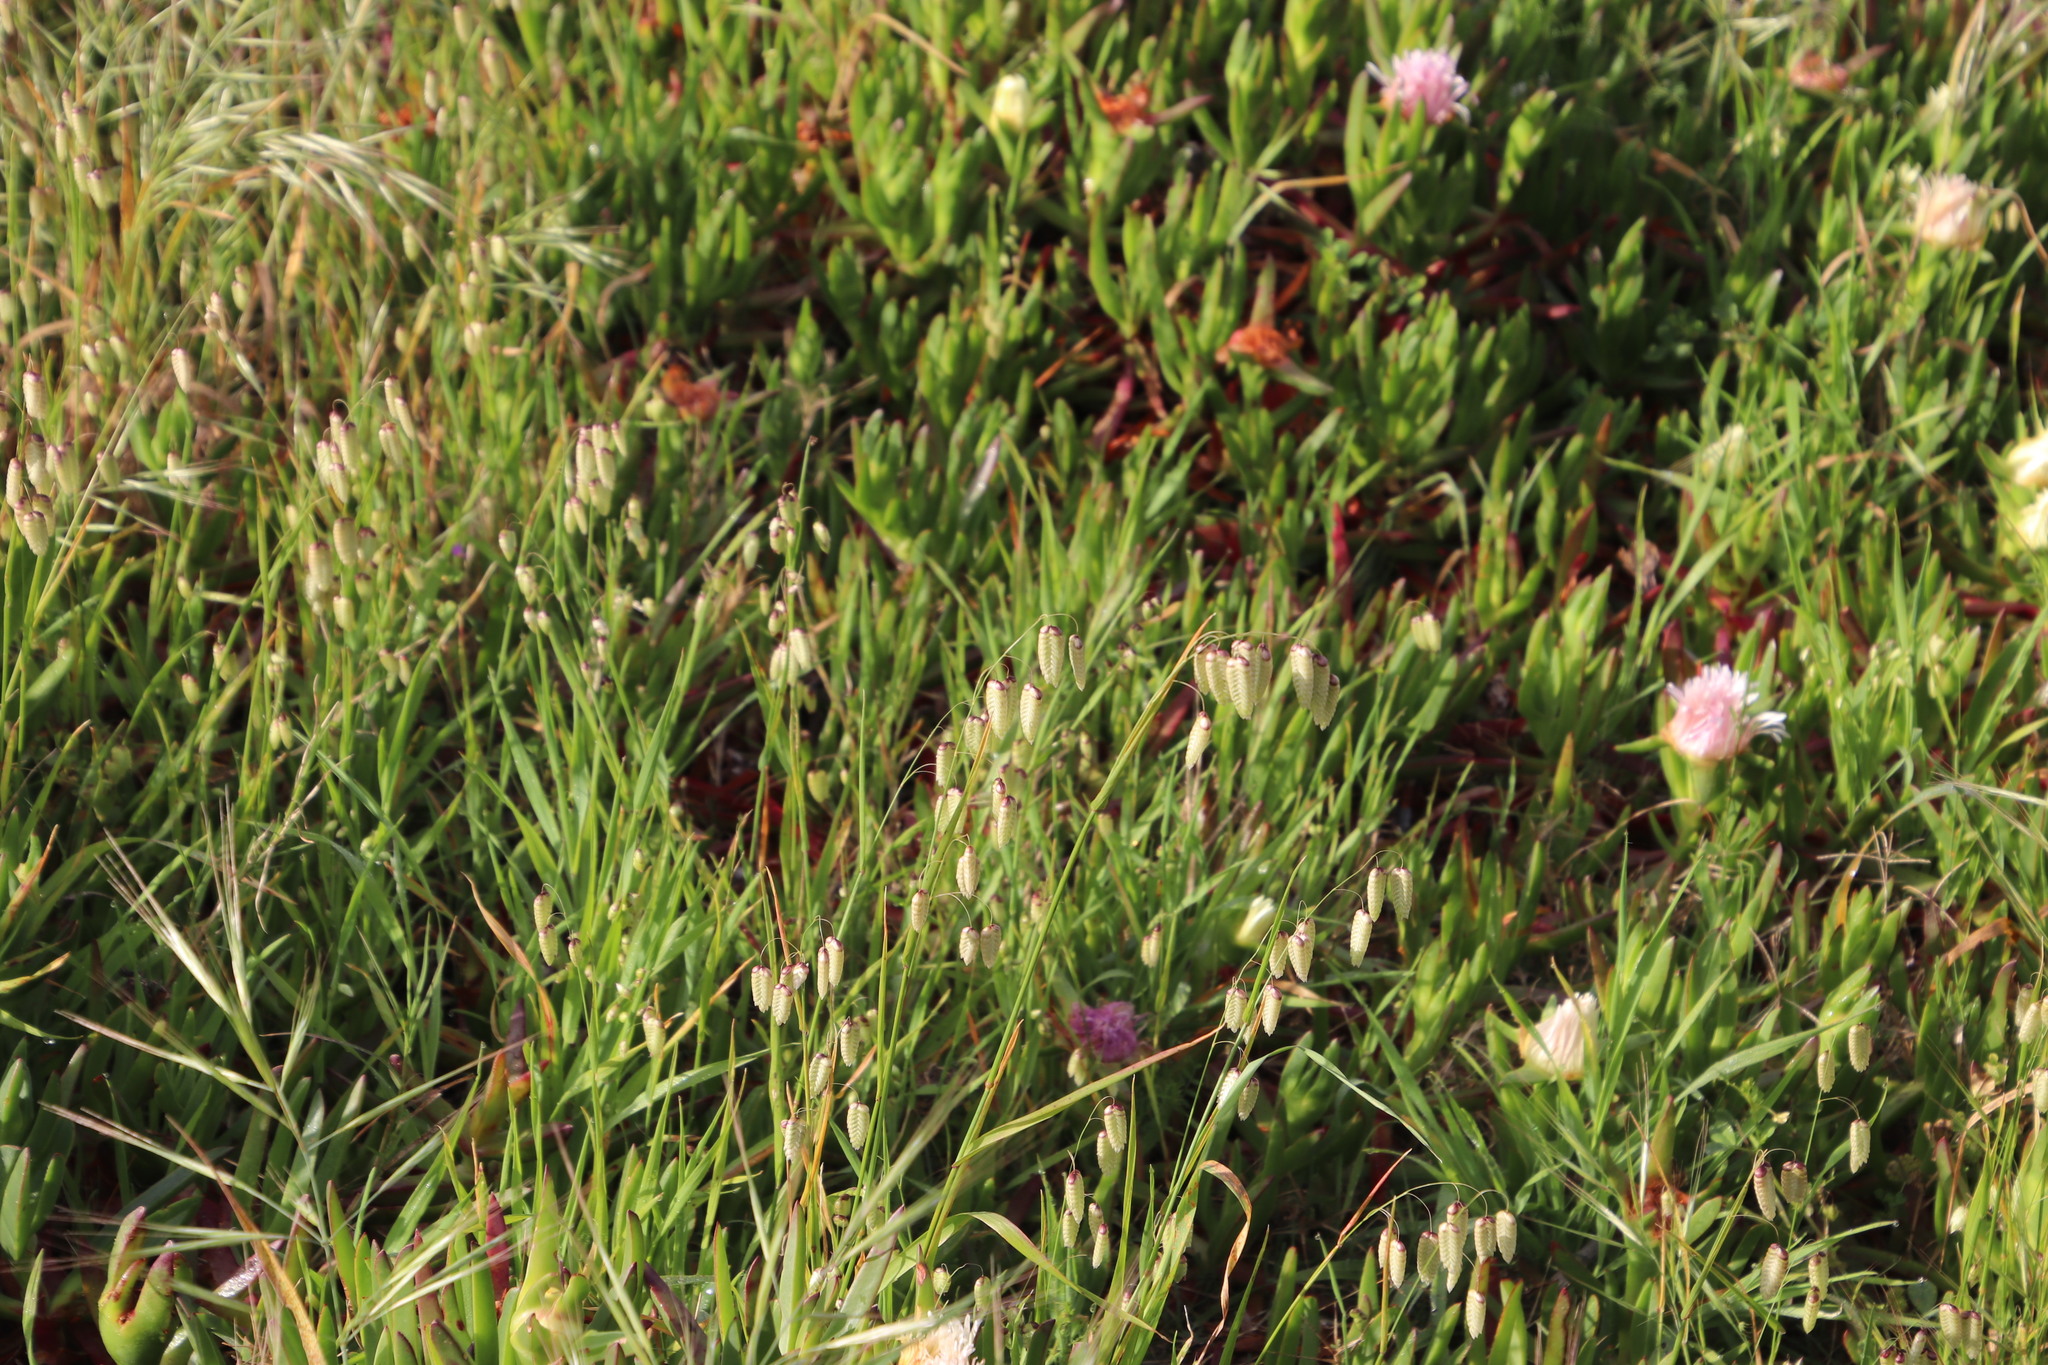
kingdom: Plantae
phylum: Tracheophyta
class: Liliopsida
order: Poales
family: Poaceae
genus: Briza
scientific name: Briza maxima
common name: Big quakinggrass
